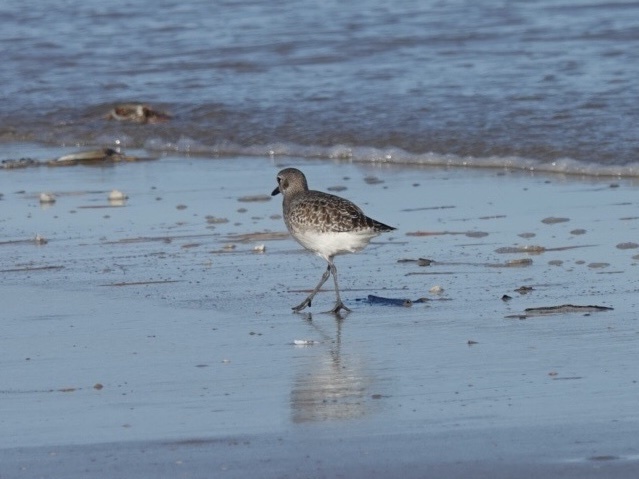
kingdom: Animalia
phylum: Chordata
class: Aves
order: Charadriiformes
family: Charadriidae
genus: Pluvialis
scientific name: Pluvialis squatarola
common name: Grey plover
